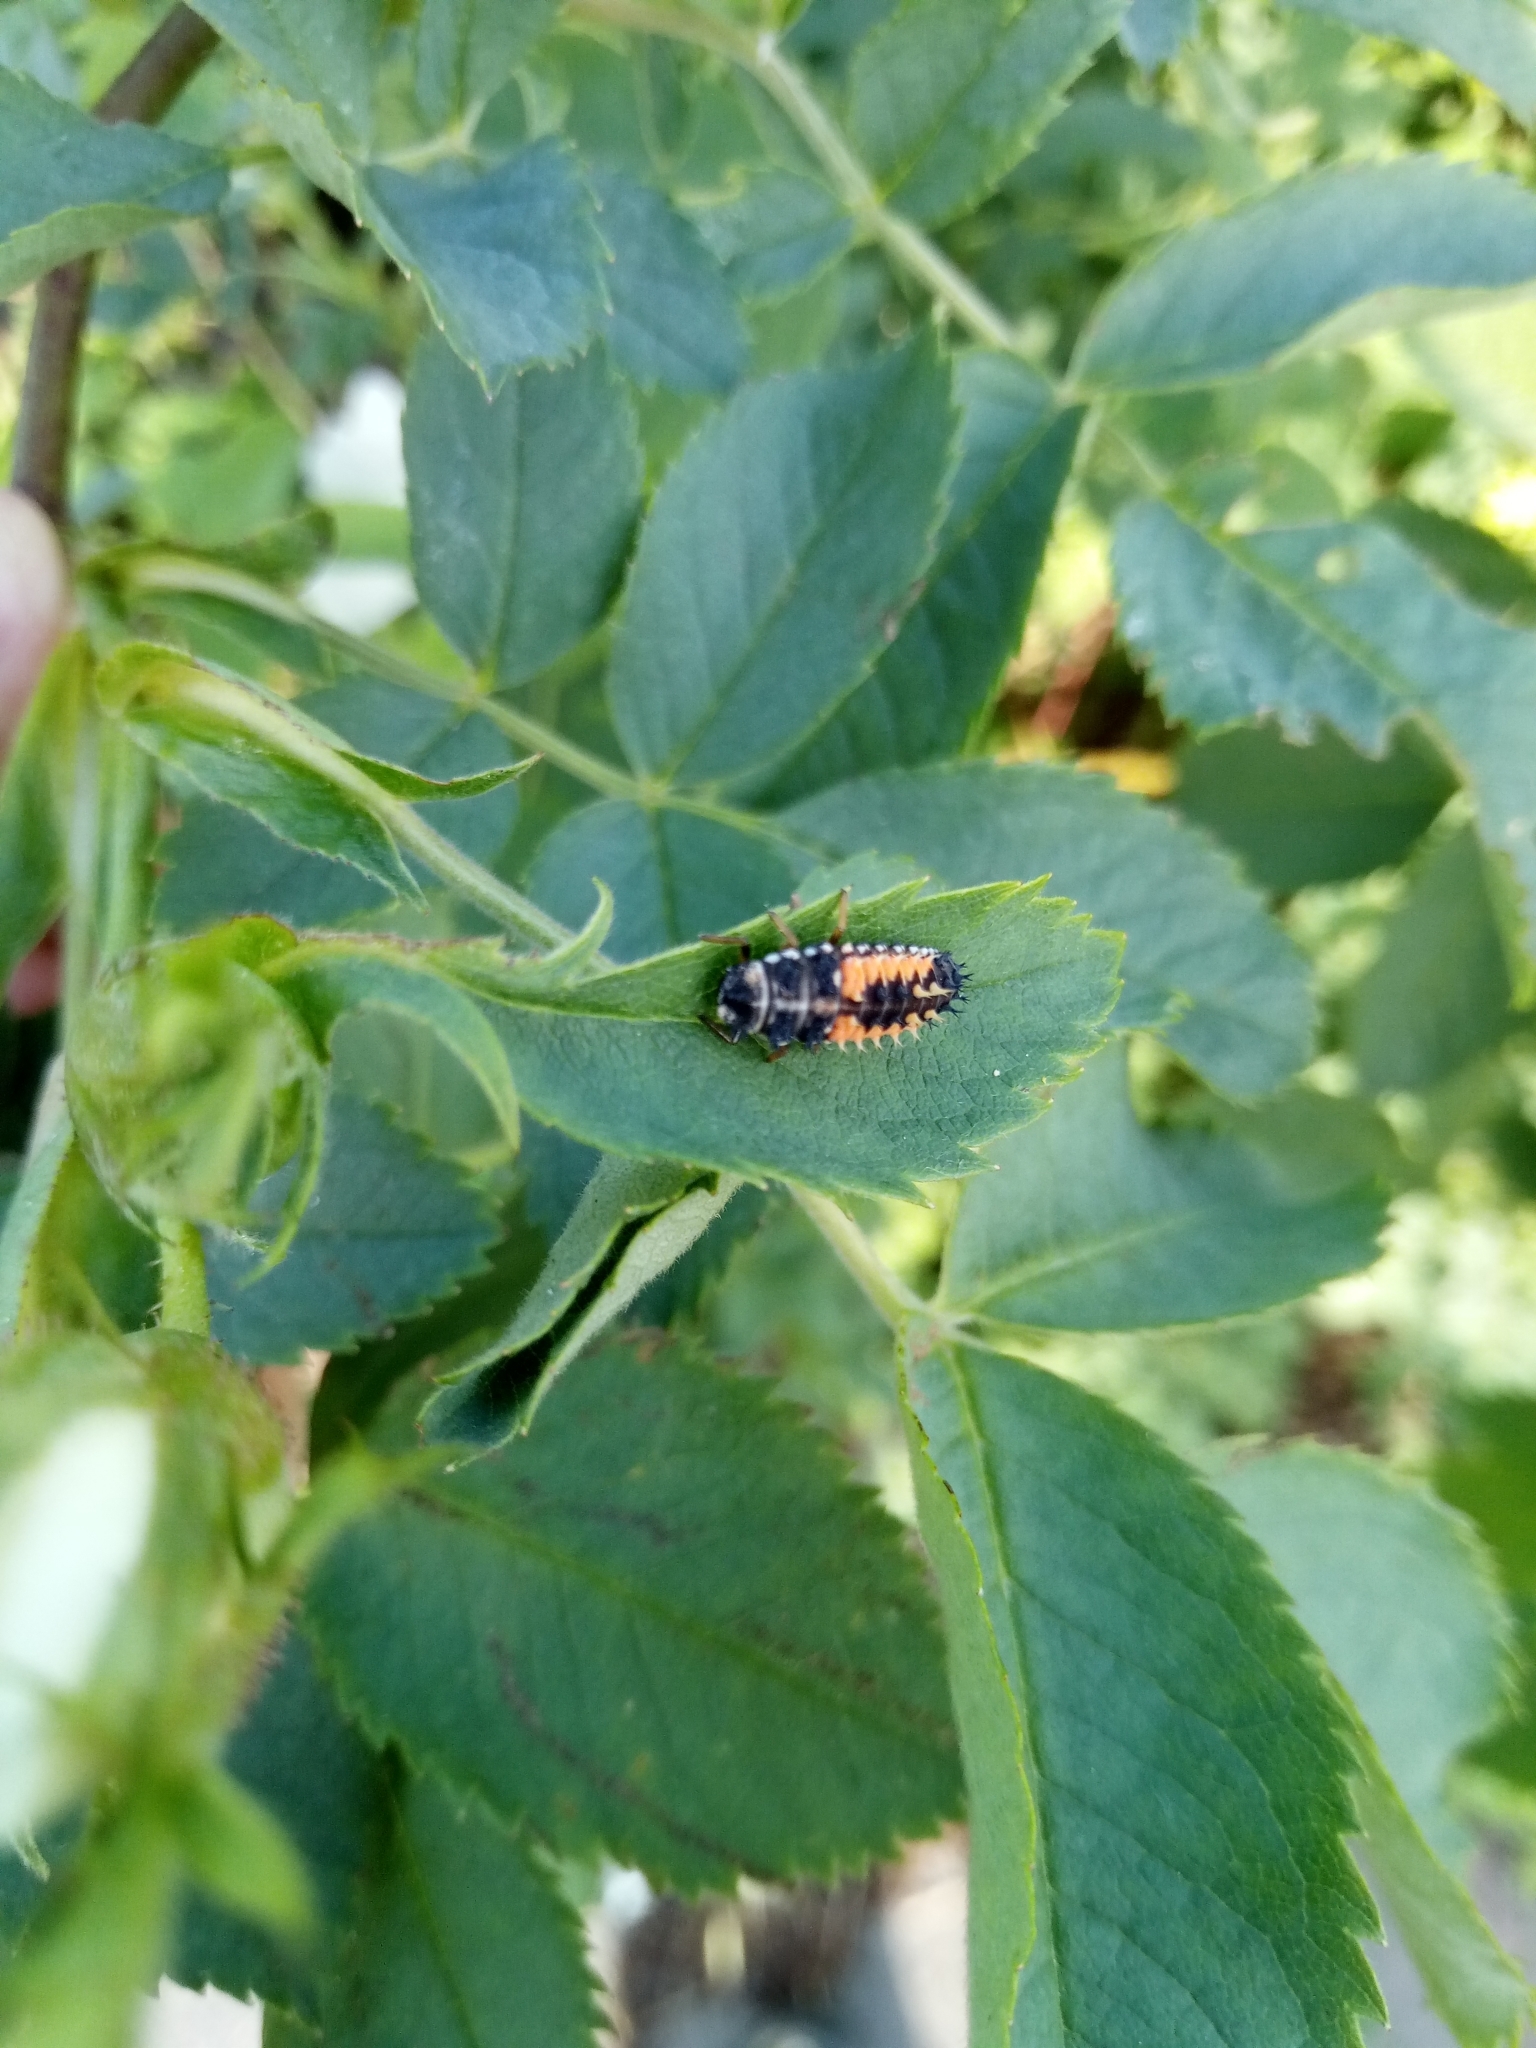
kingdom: Animalia
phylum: Arthropoda
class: Insecta
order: Coleoptera
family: Coccinellidae
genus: Harmonia
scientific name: Harmonia axyridis
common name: Harlequin ladybird
